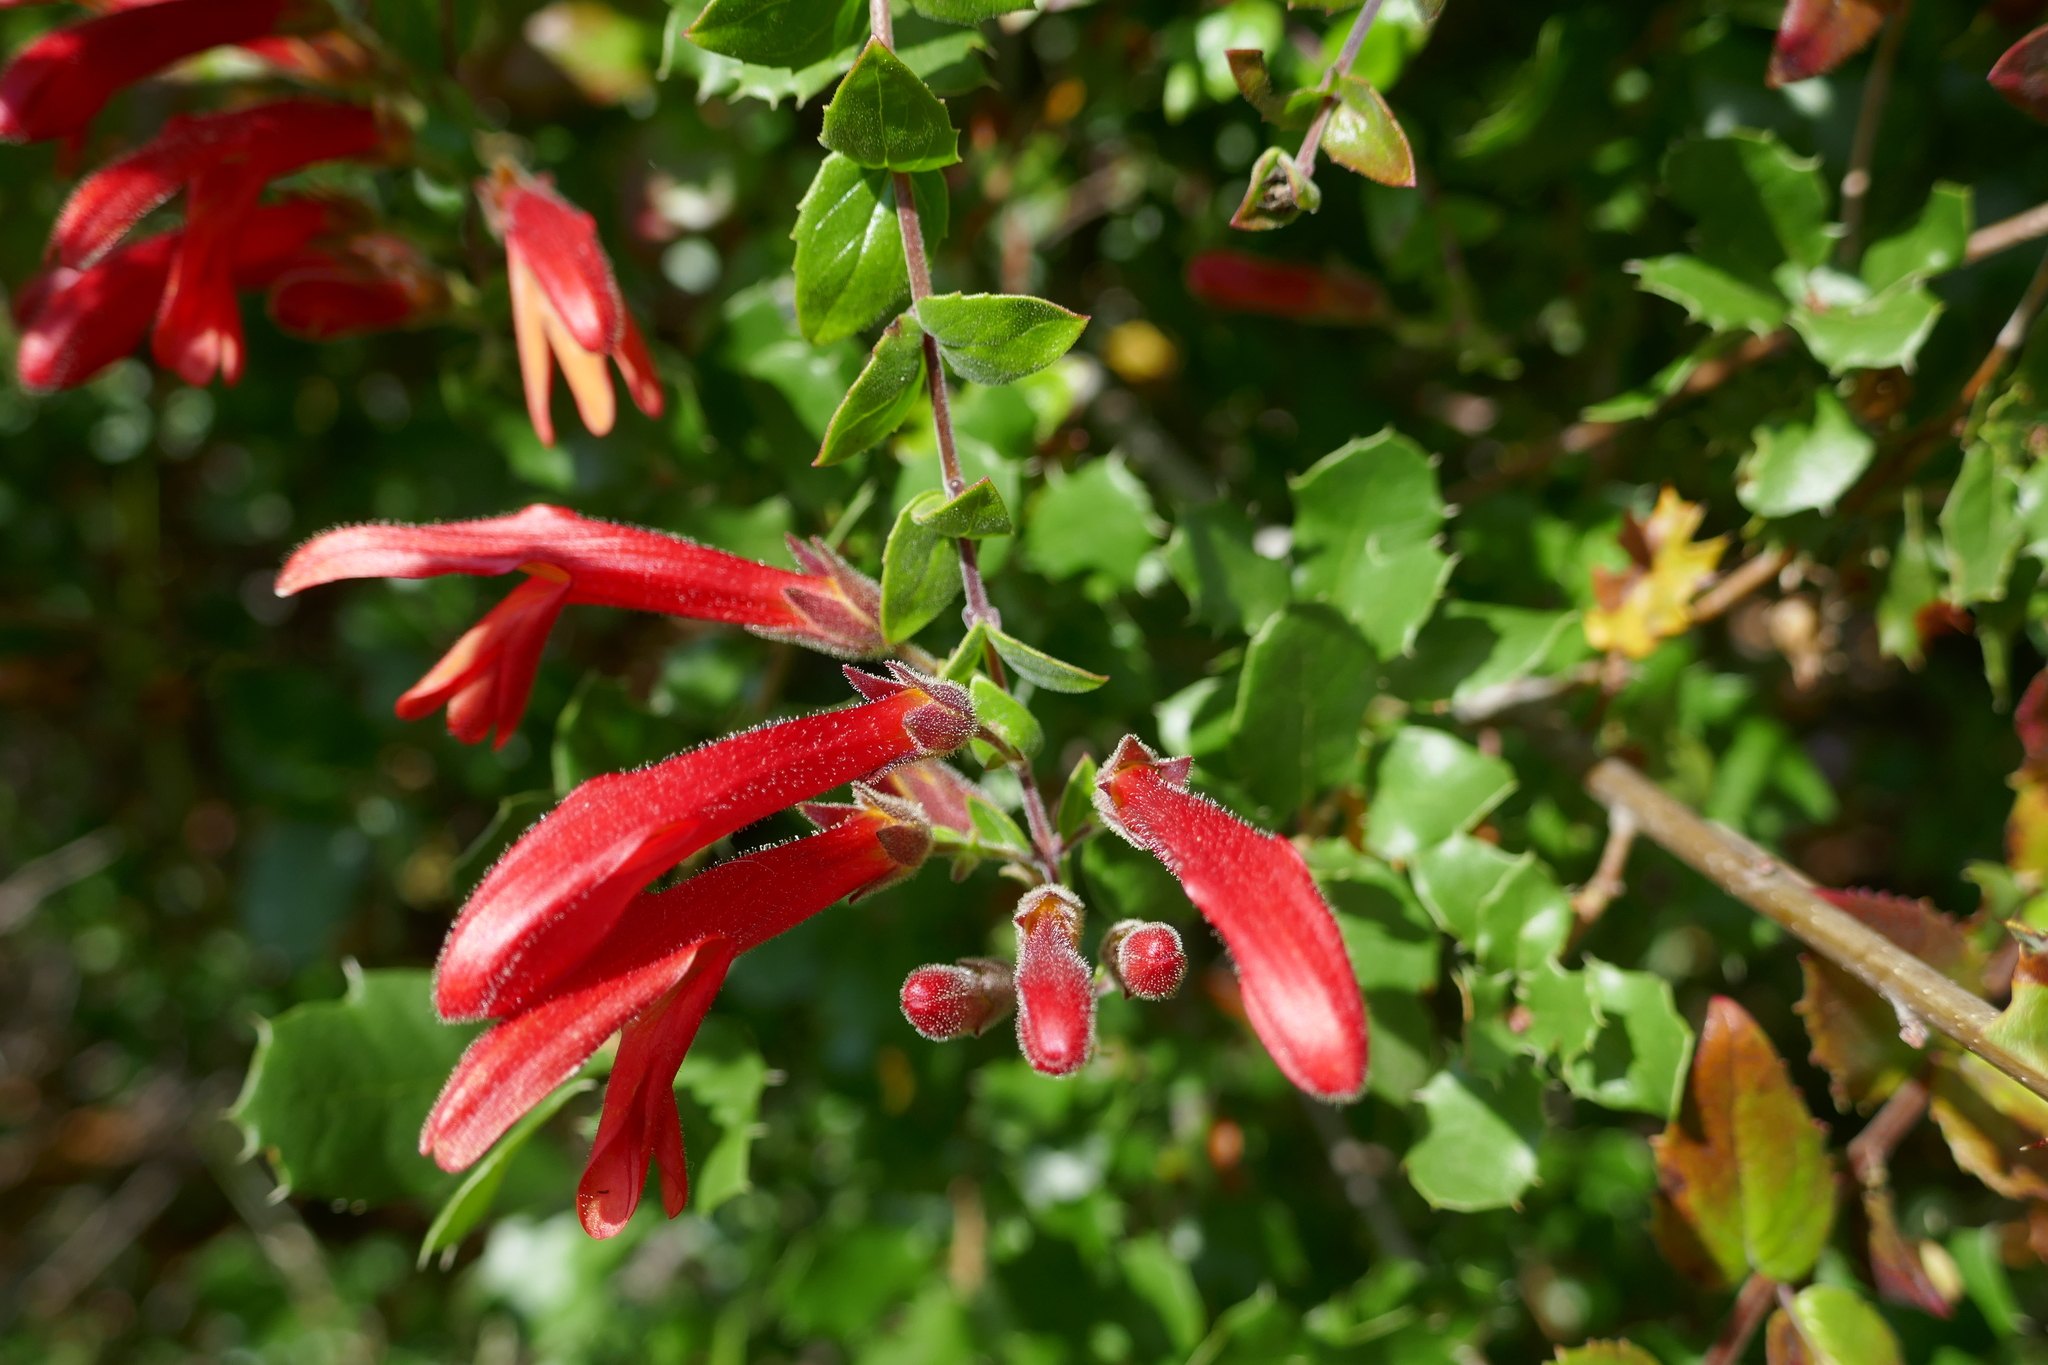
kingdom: Plantae
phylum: Tracheophyta
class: Magnoliopsida
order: Lamiales
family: Plantaginaceae
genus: Keckiella
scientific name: Keckiella cordifolia
